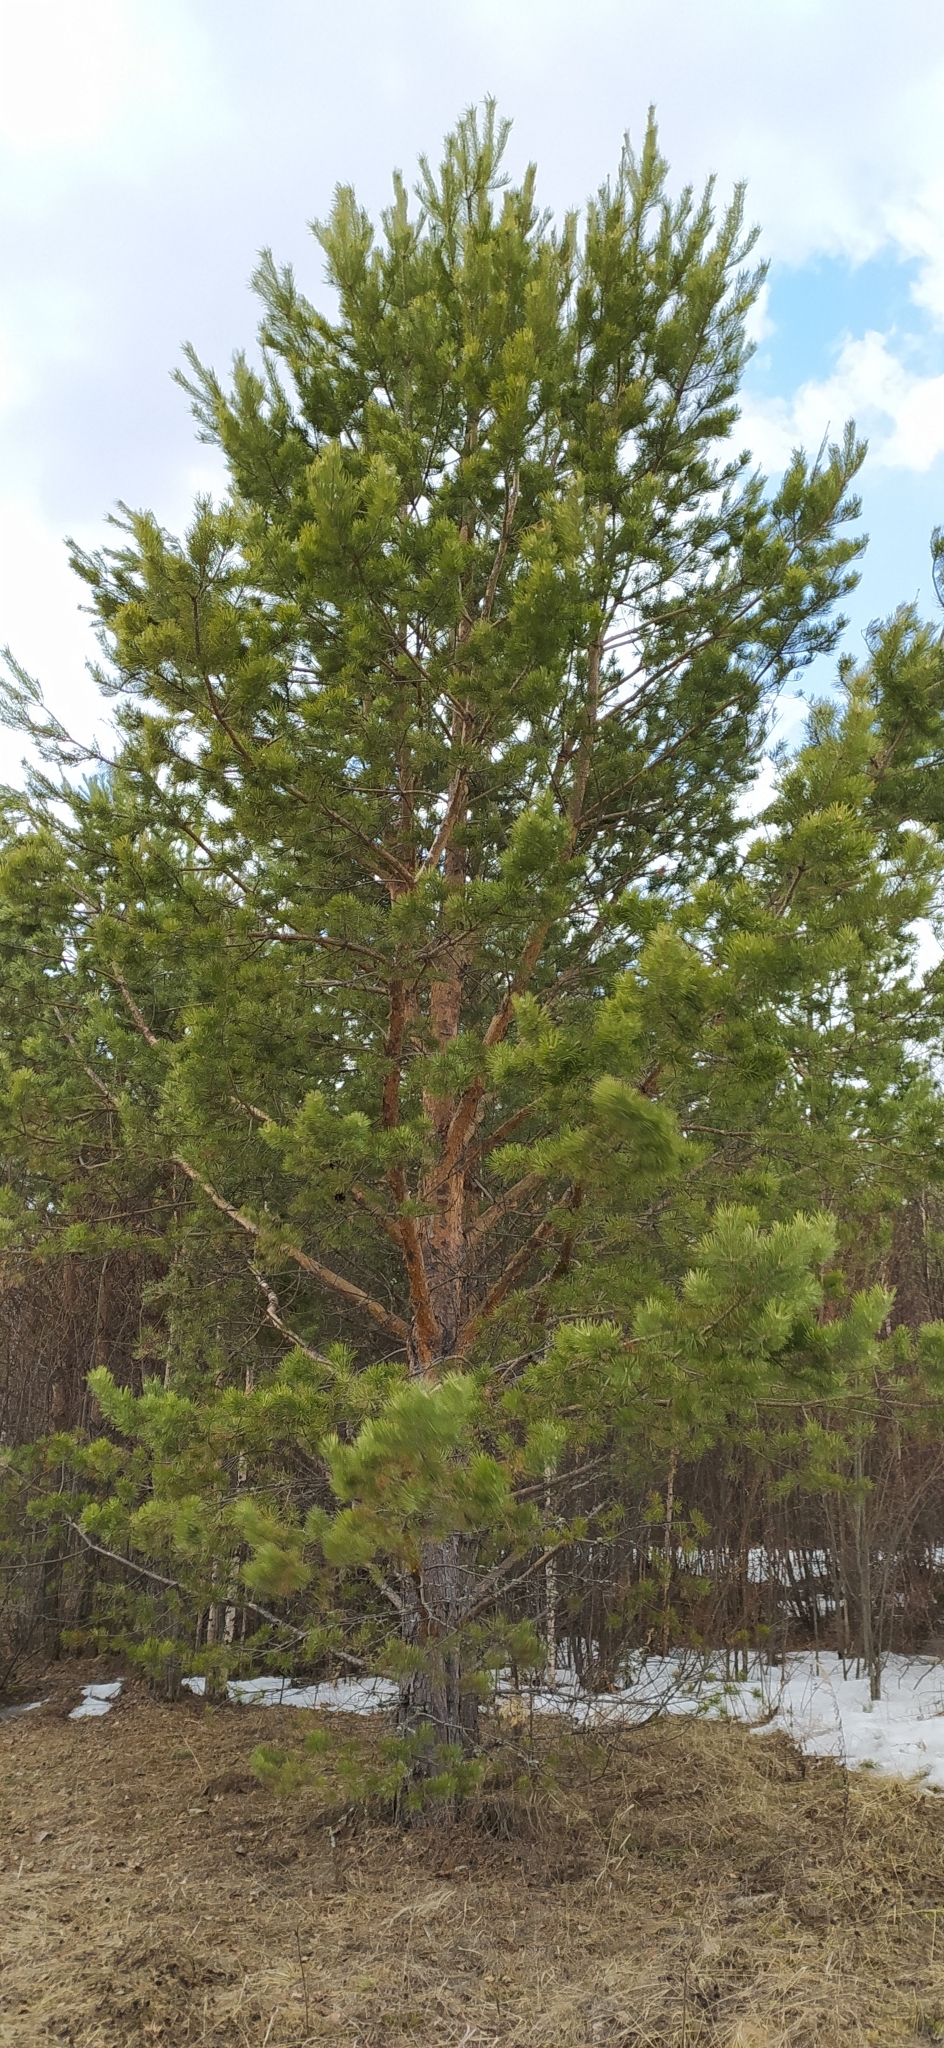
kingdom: Plantae
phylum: Tracheophyta
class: Pinopsida
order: Pinales
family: Pinaceae
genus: Pinus
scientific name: Pinus sylvestris
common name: Scots pine
